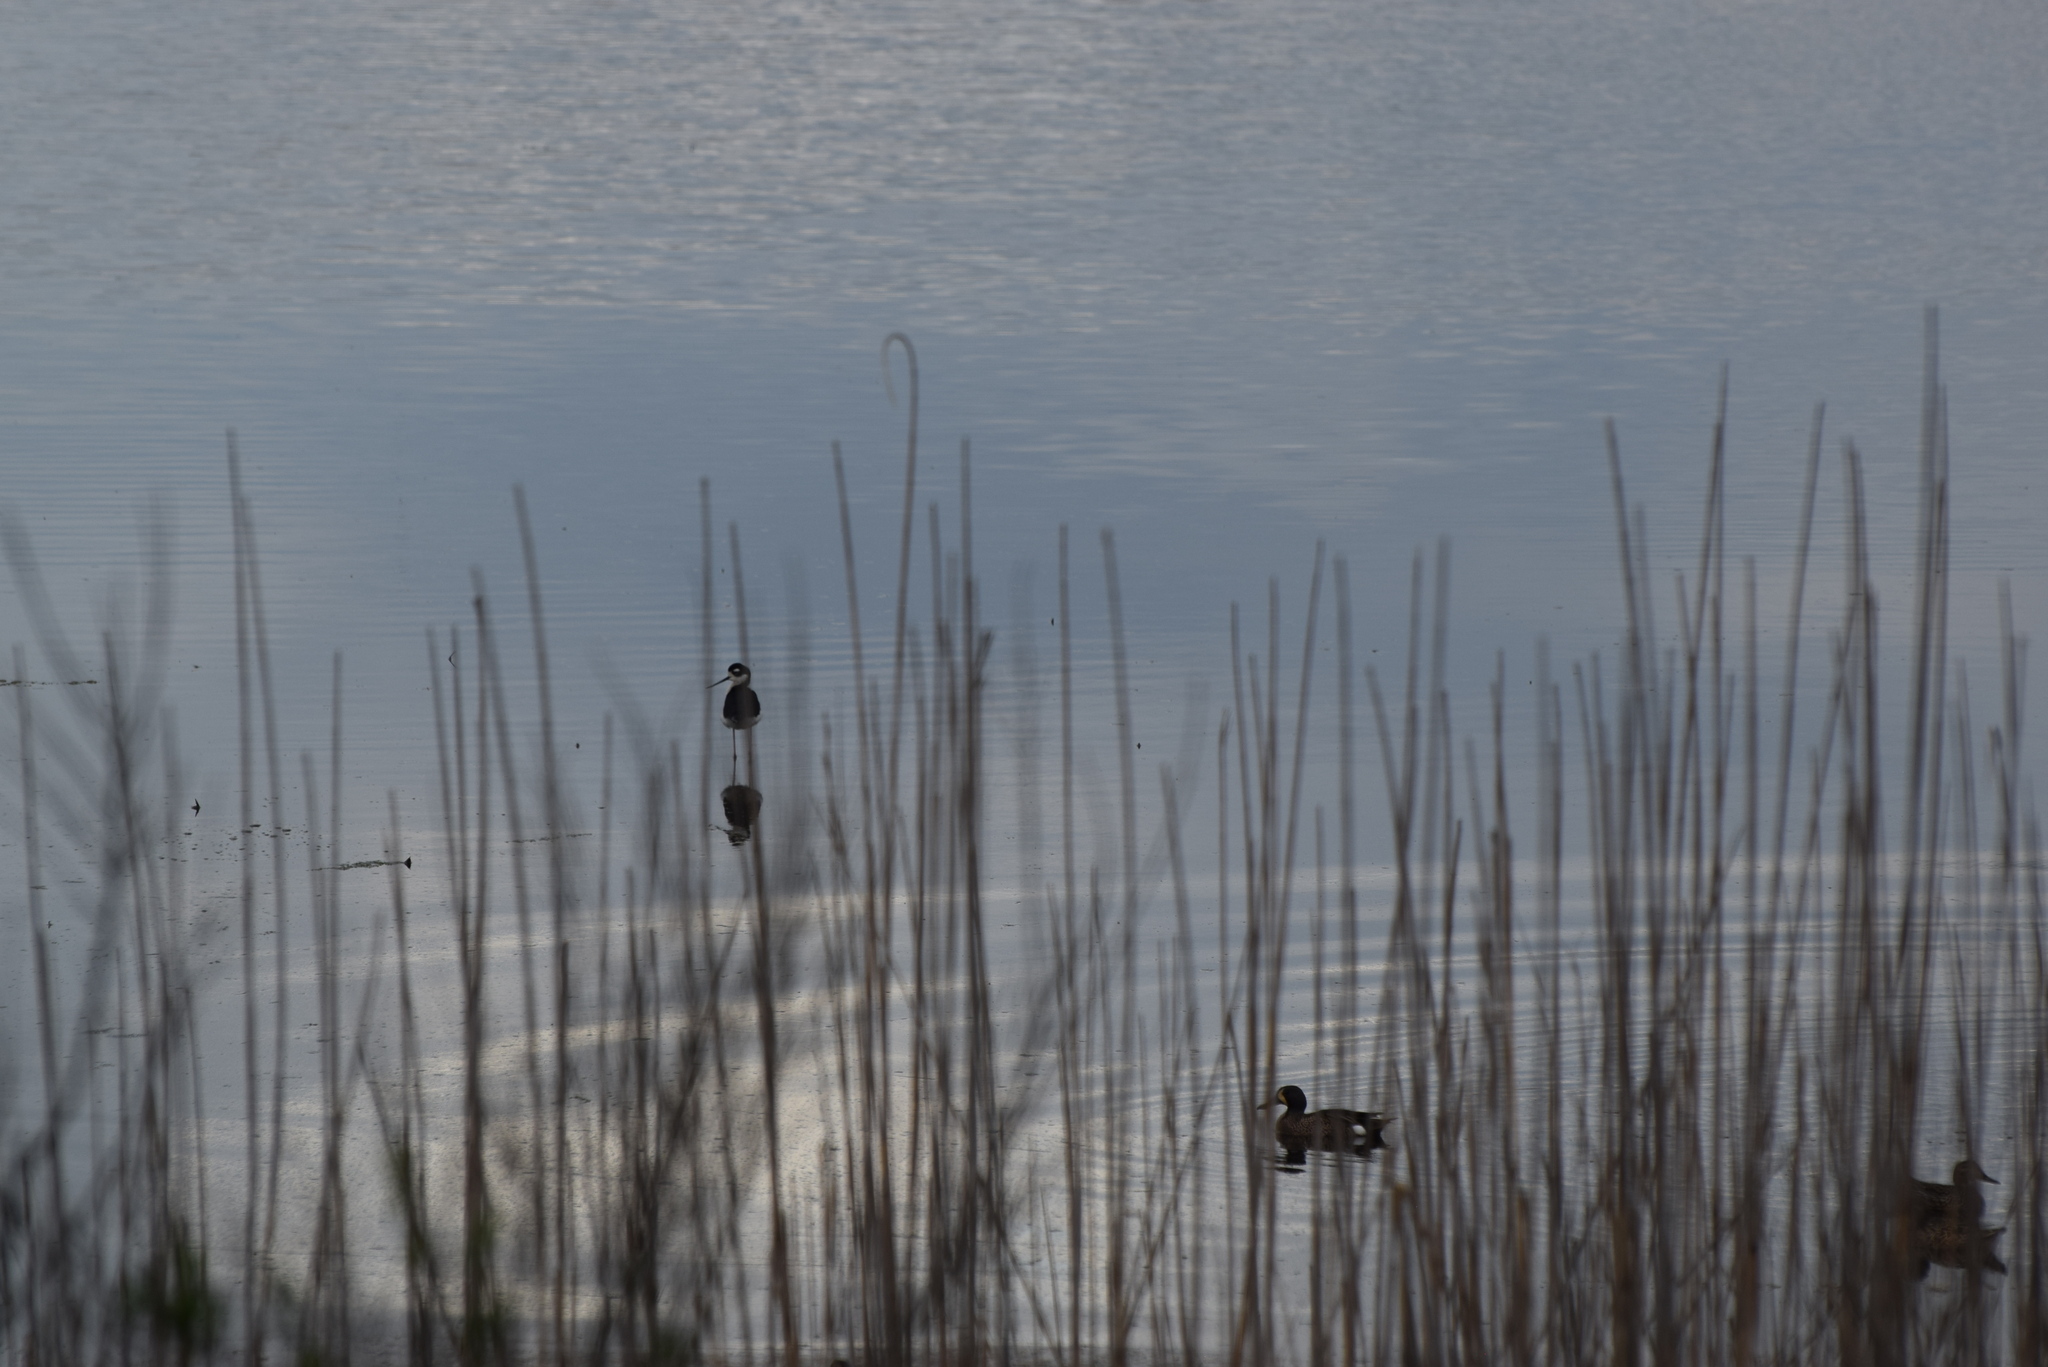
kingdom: Animalia
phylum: Chordata
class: Aves
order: Charadriiformes
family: Recurvirostridae
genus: Himantopus
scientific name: Himantopus mexicanus
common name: Black-necked stilt
